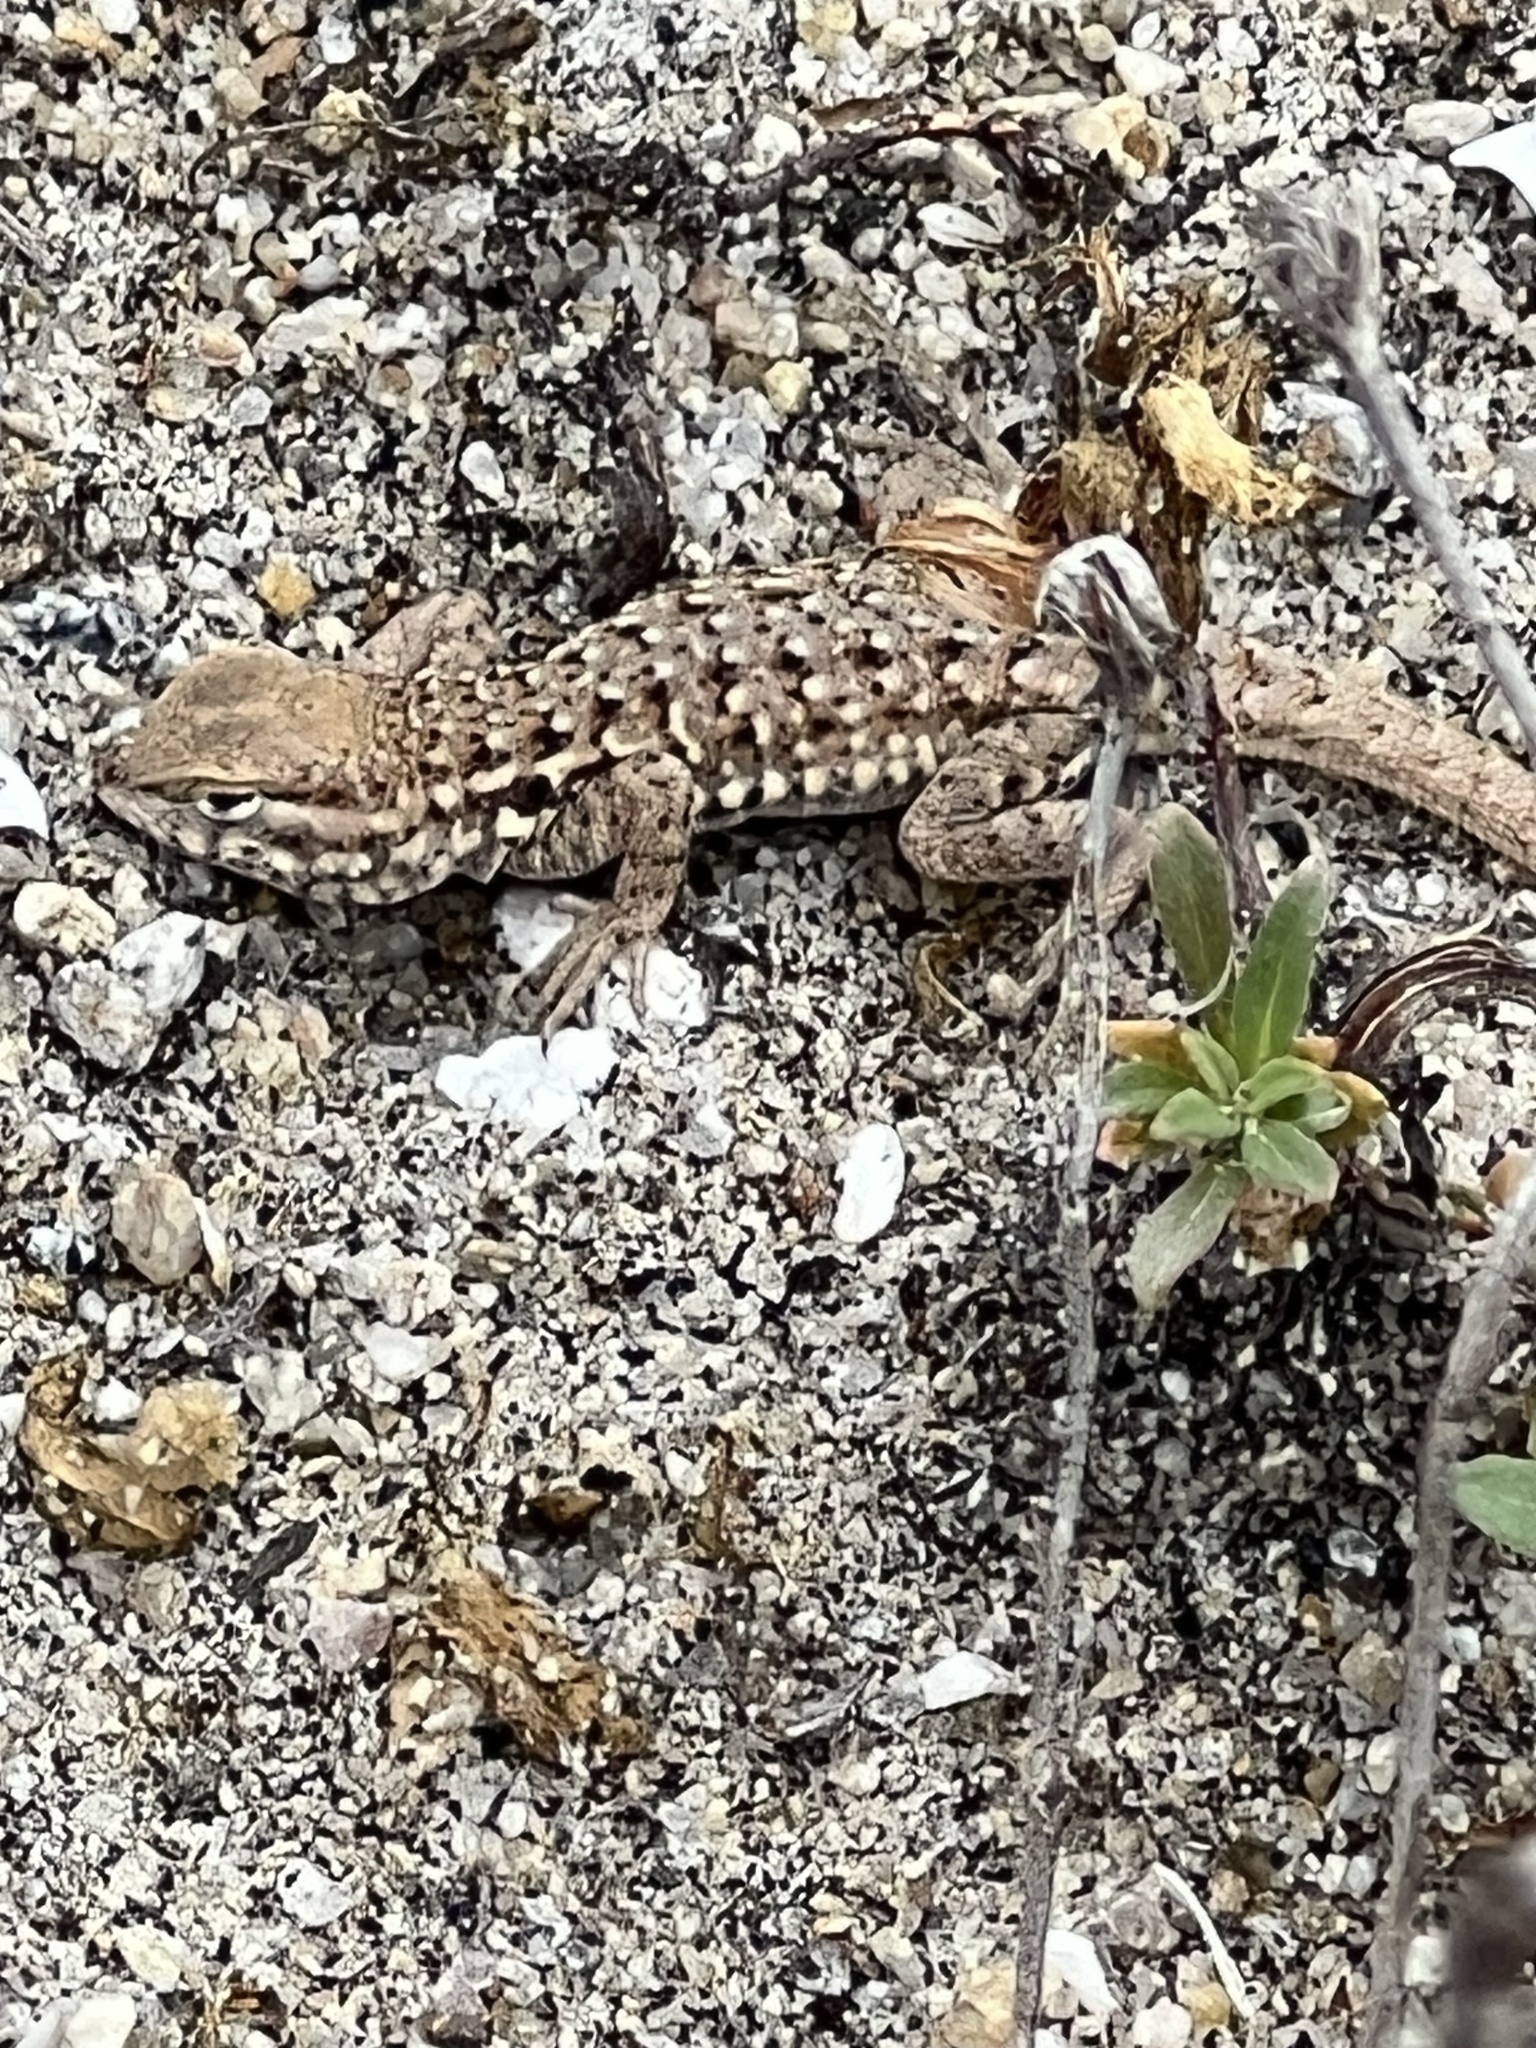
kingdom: Animalia
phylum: Chordata
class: Squamata
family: Phrynosomatidae
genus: Uta
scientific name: Uta stansburiana
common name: Side-blotched lizard
